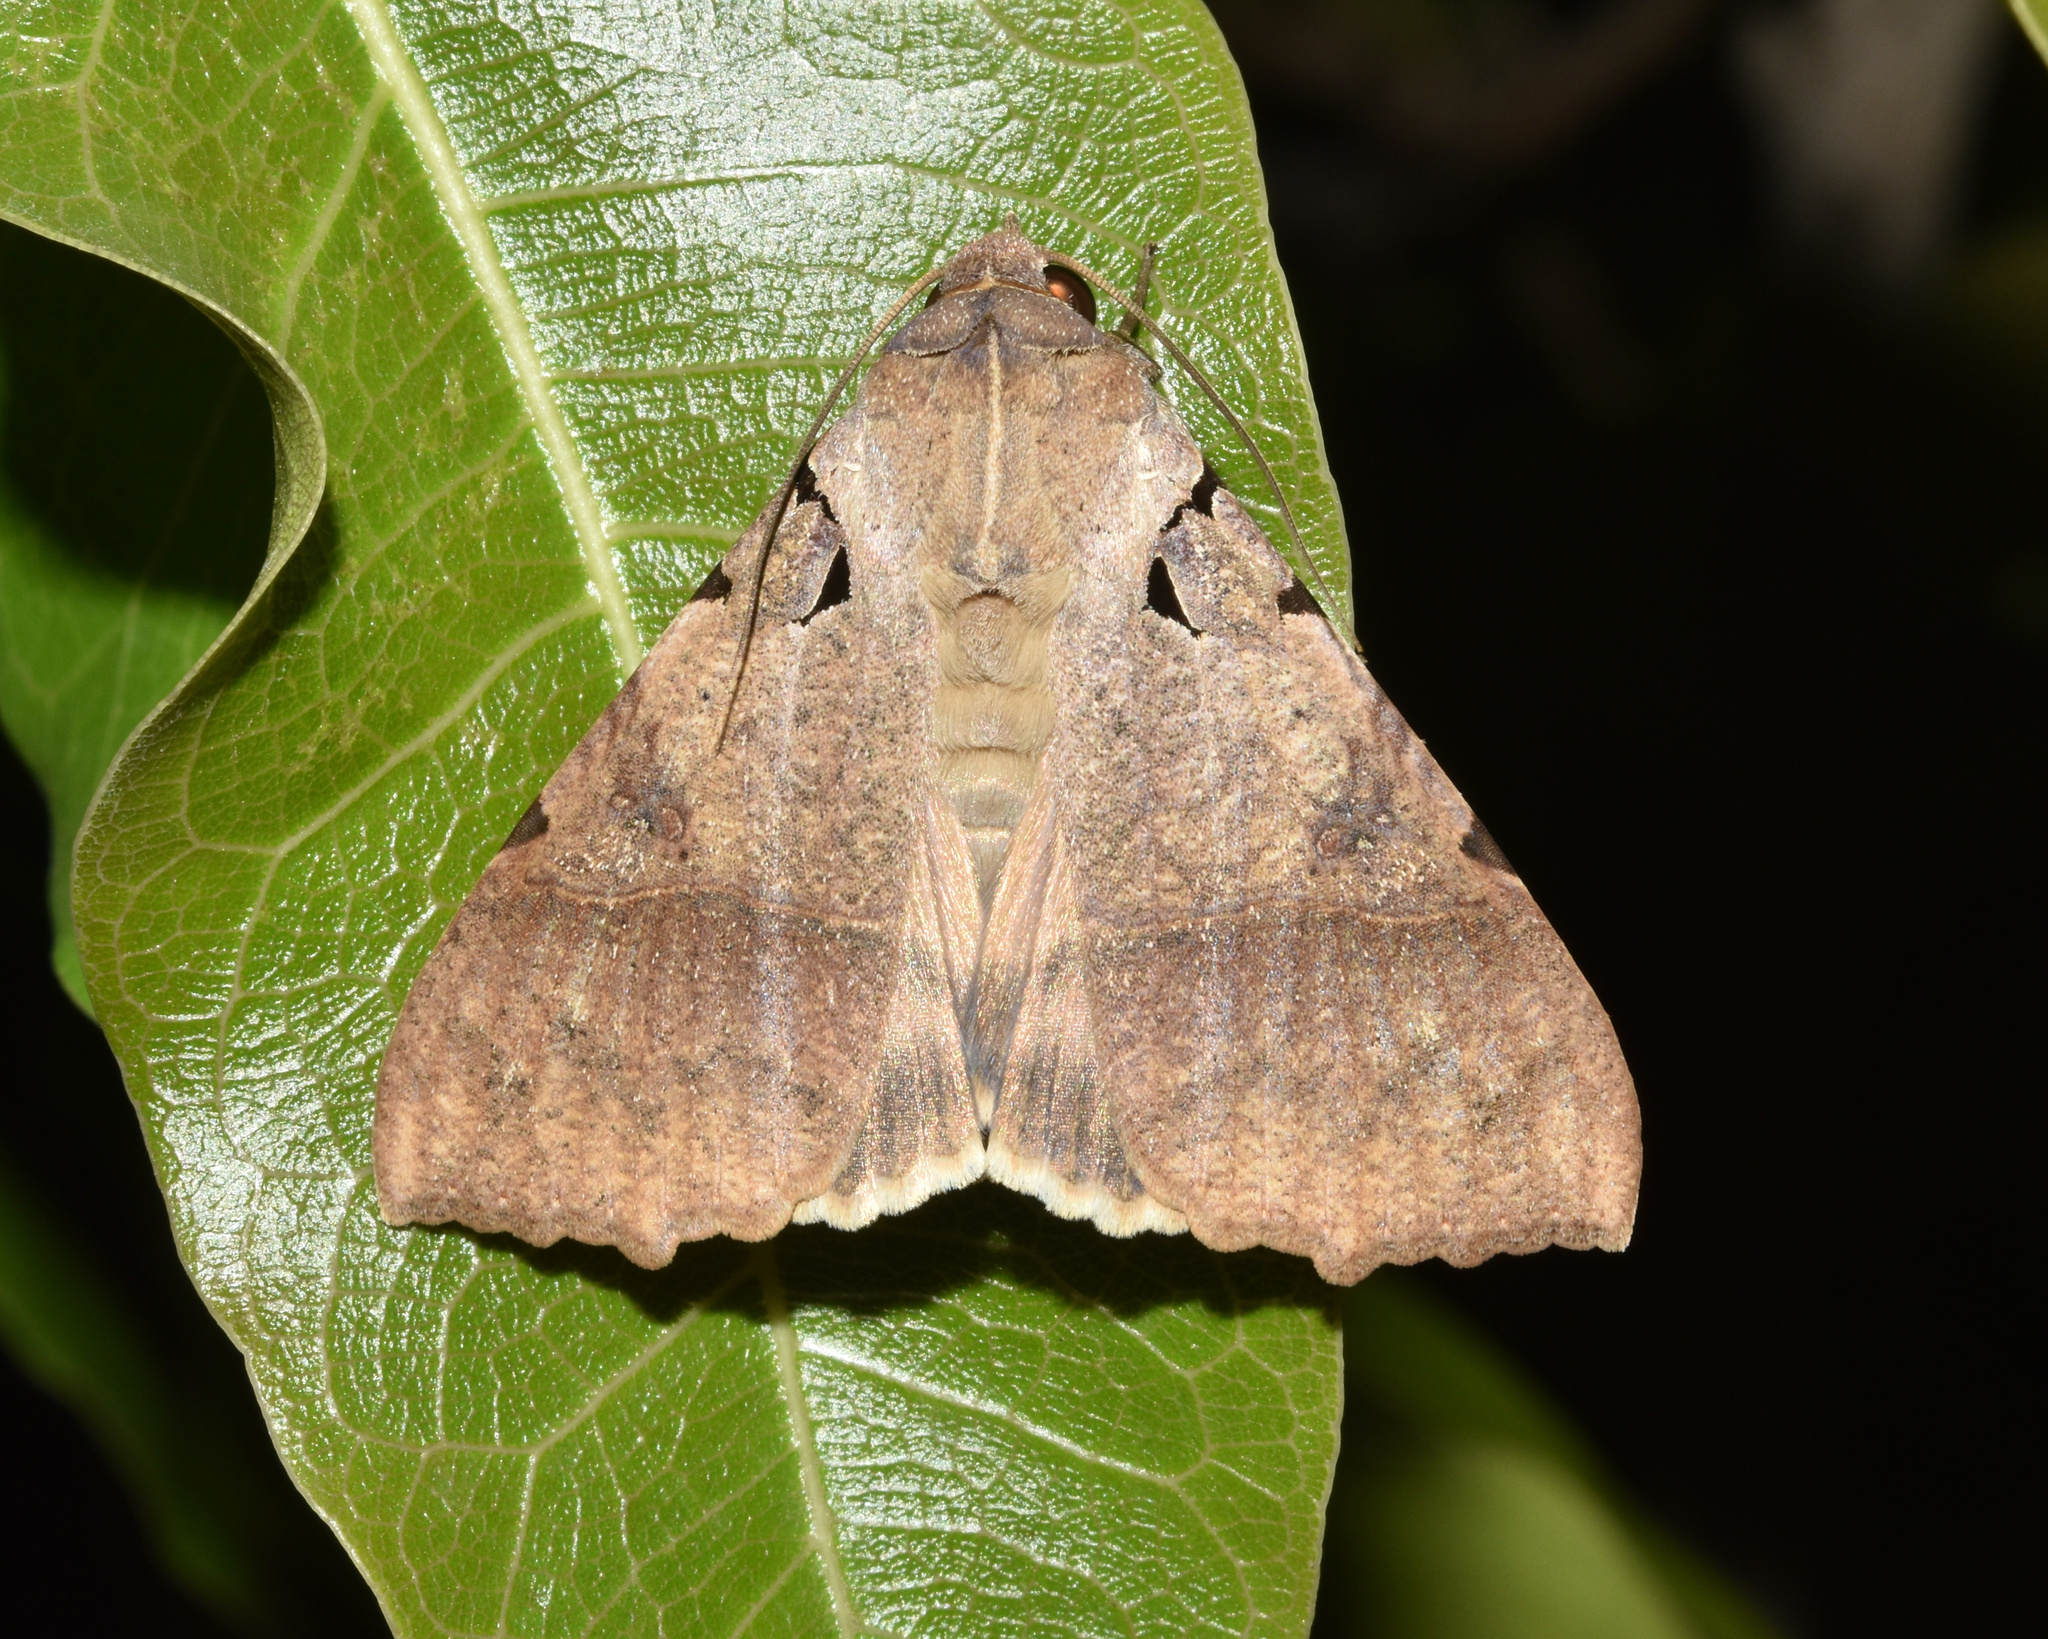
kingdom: Animalia
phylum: Arthropoda
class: Insecta
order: Lepidoptera
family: Erebidae
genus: Serrodes
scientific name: Serrodes campana
